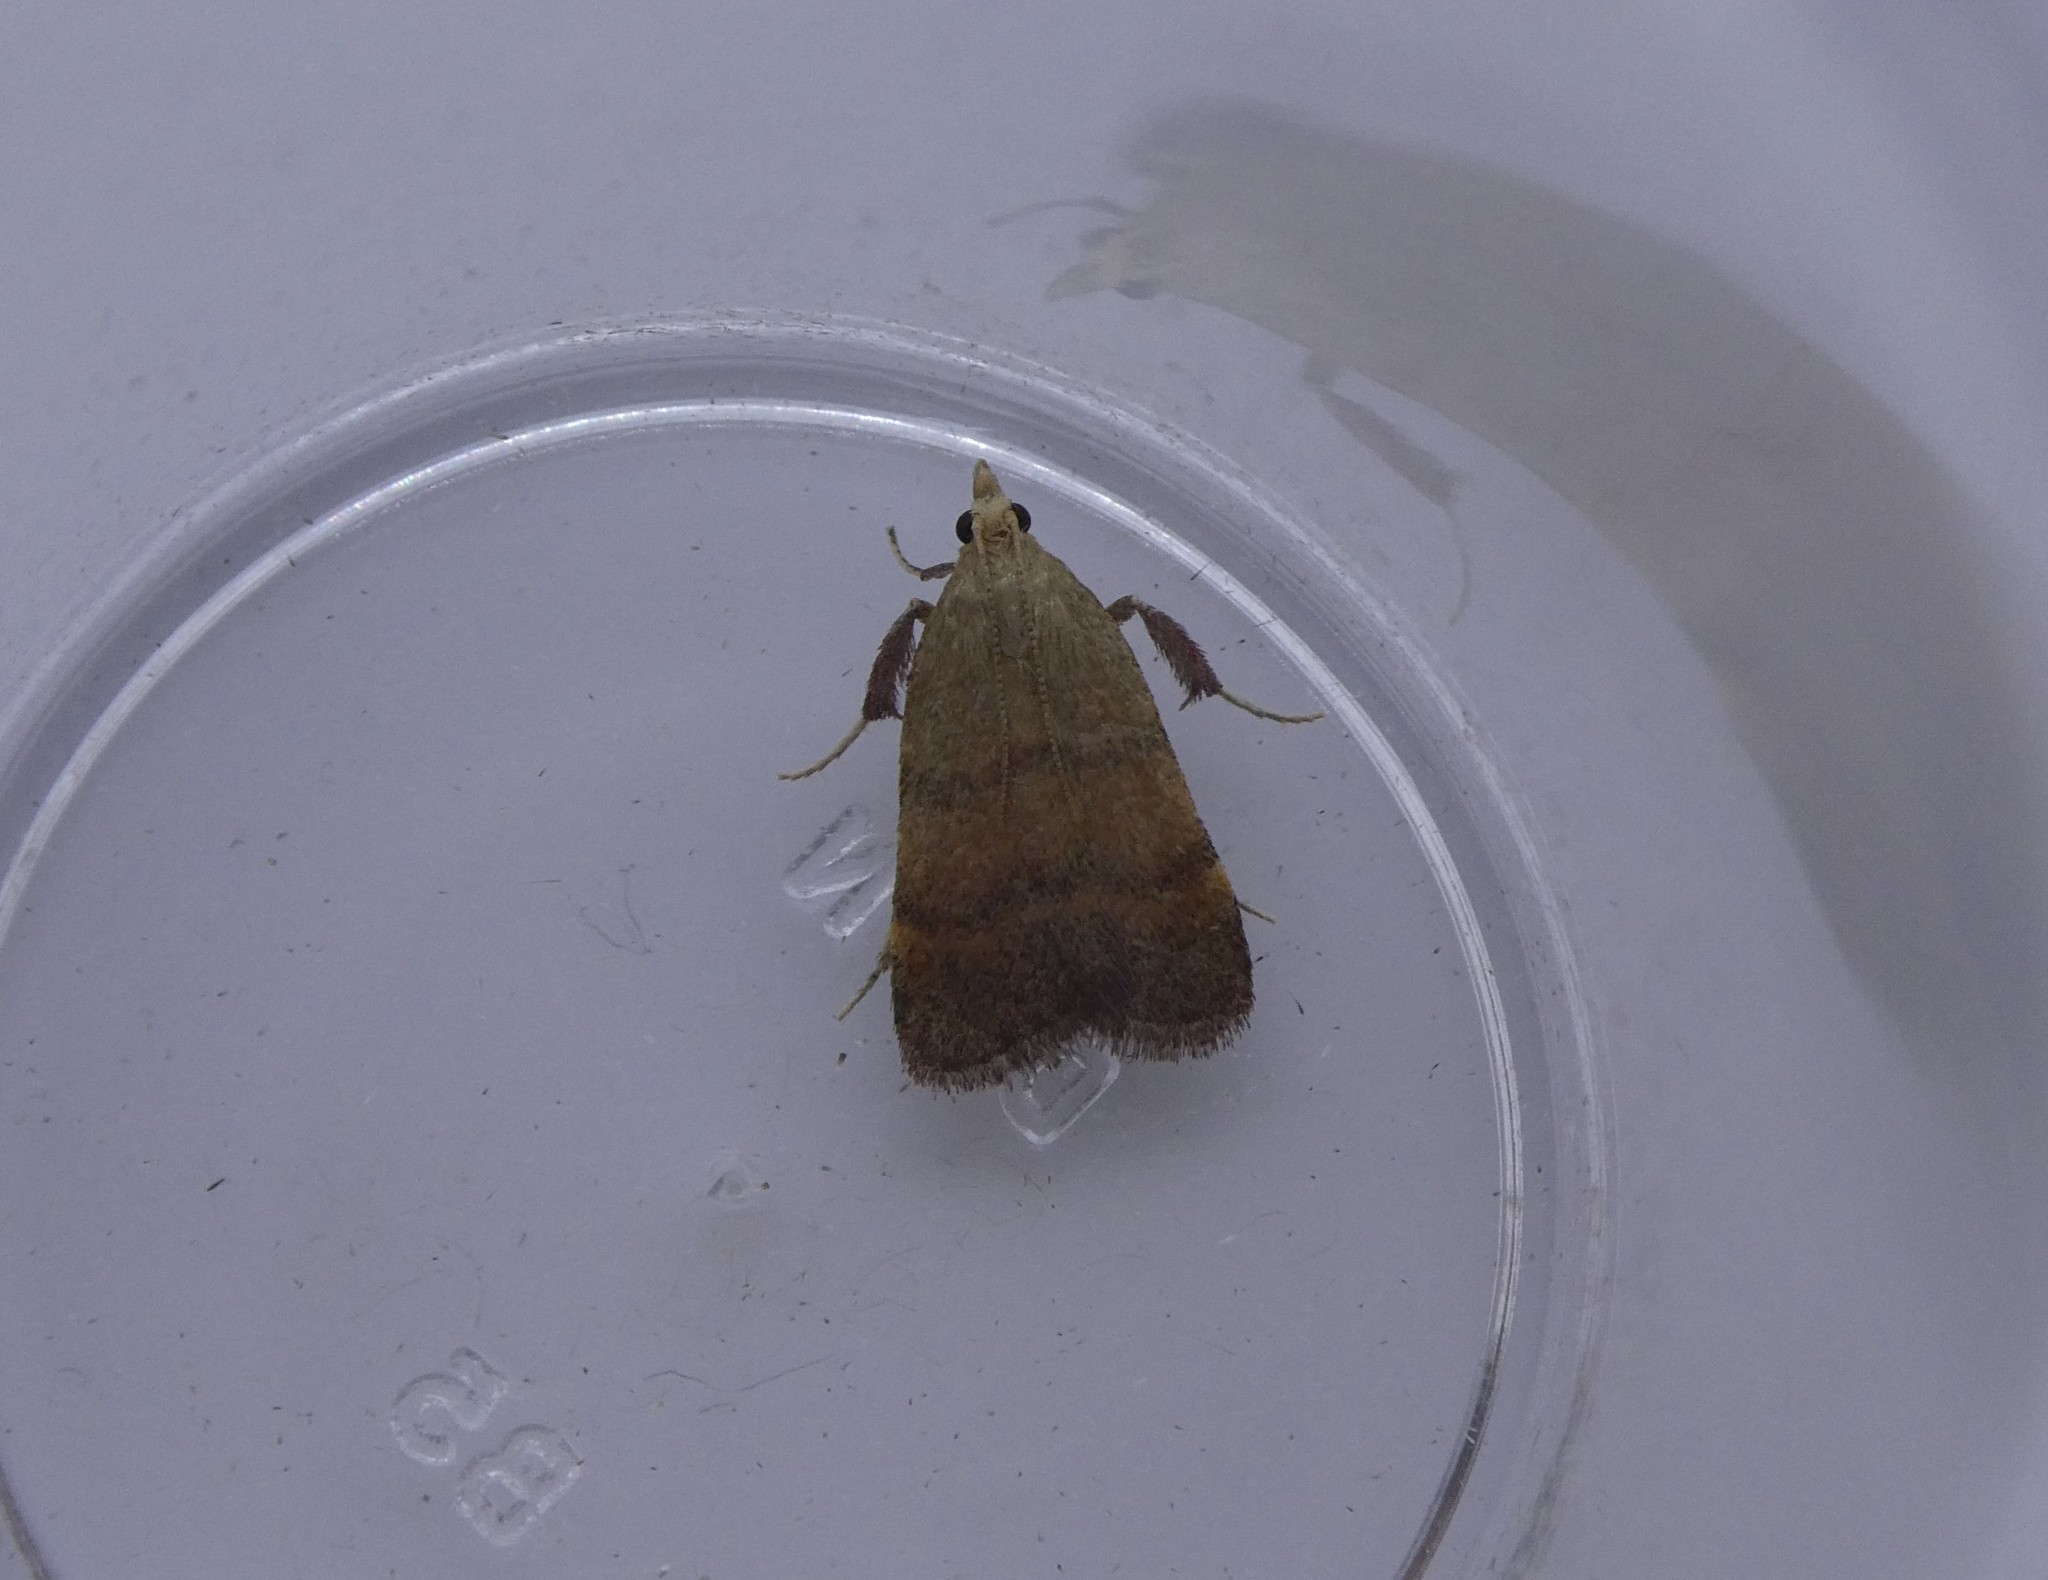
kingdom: Animalia
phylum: Arthropoda
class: Insecta
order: Lepidoptera
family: Pyralidae
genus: Condylolomia
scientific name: Condylolomia participialis
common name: Drab condylolomia moth
